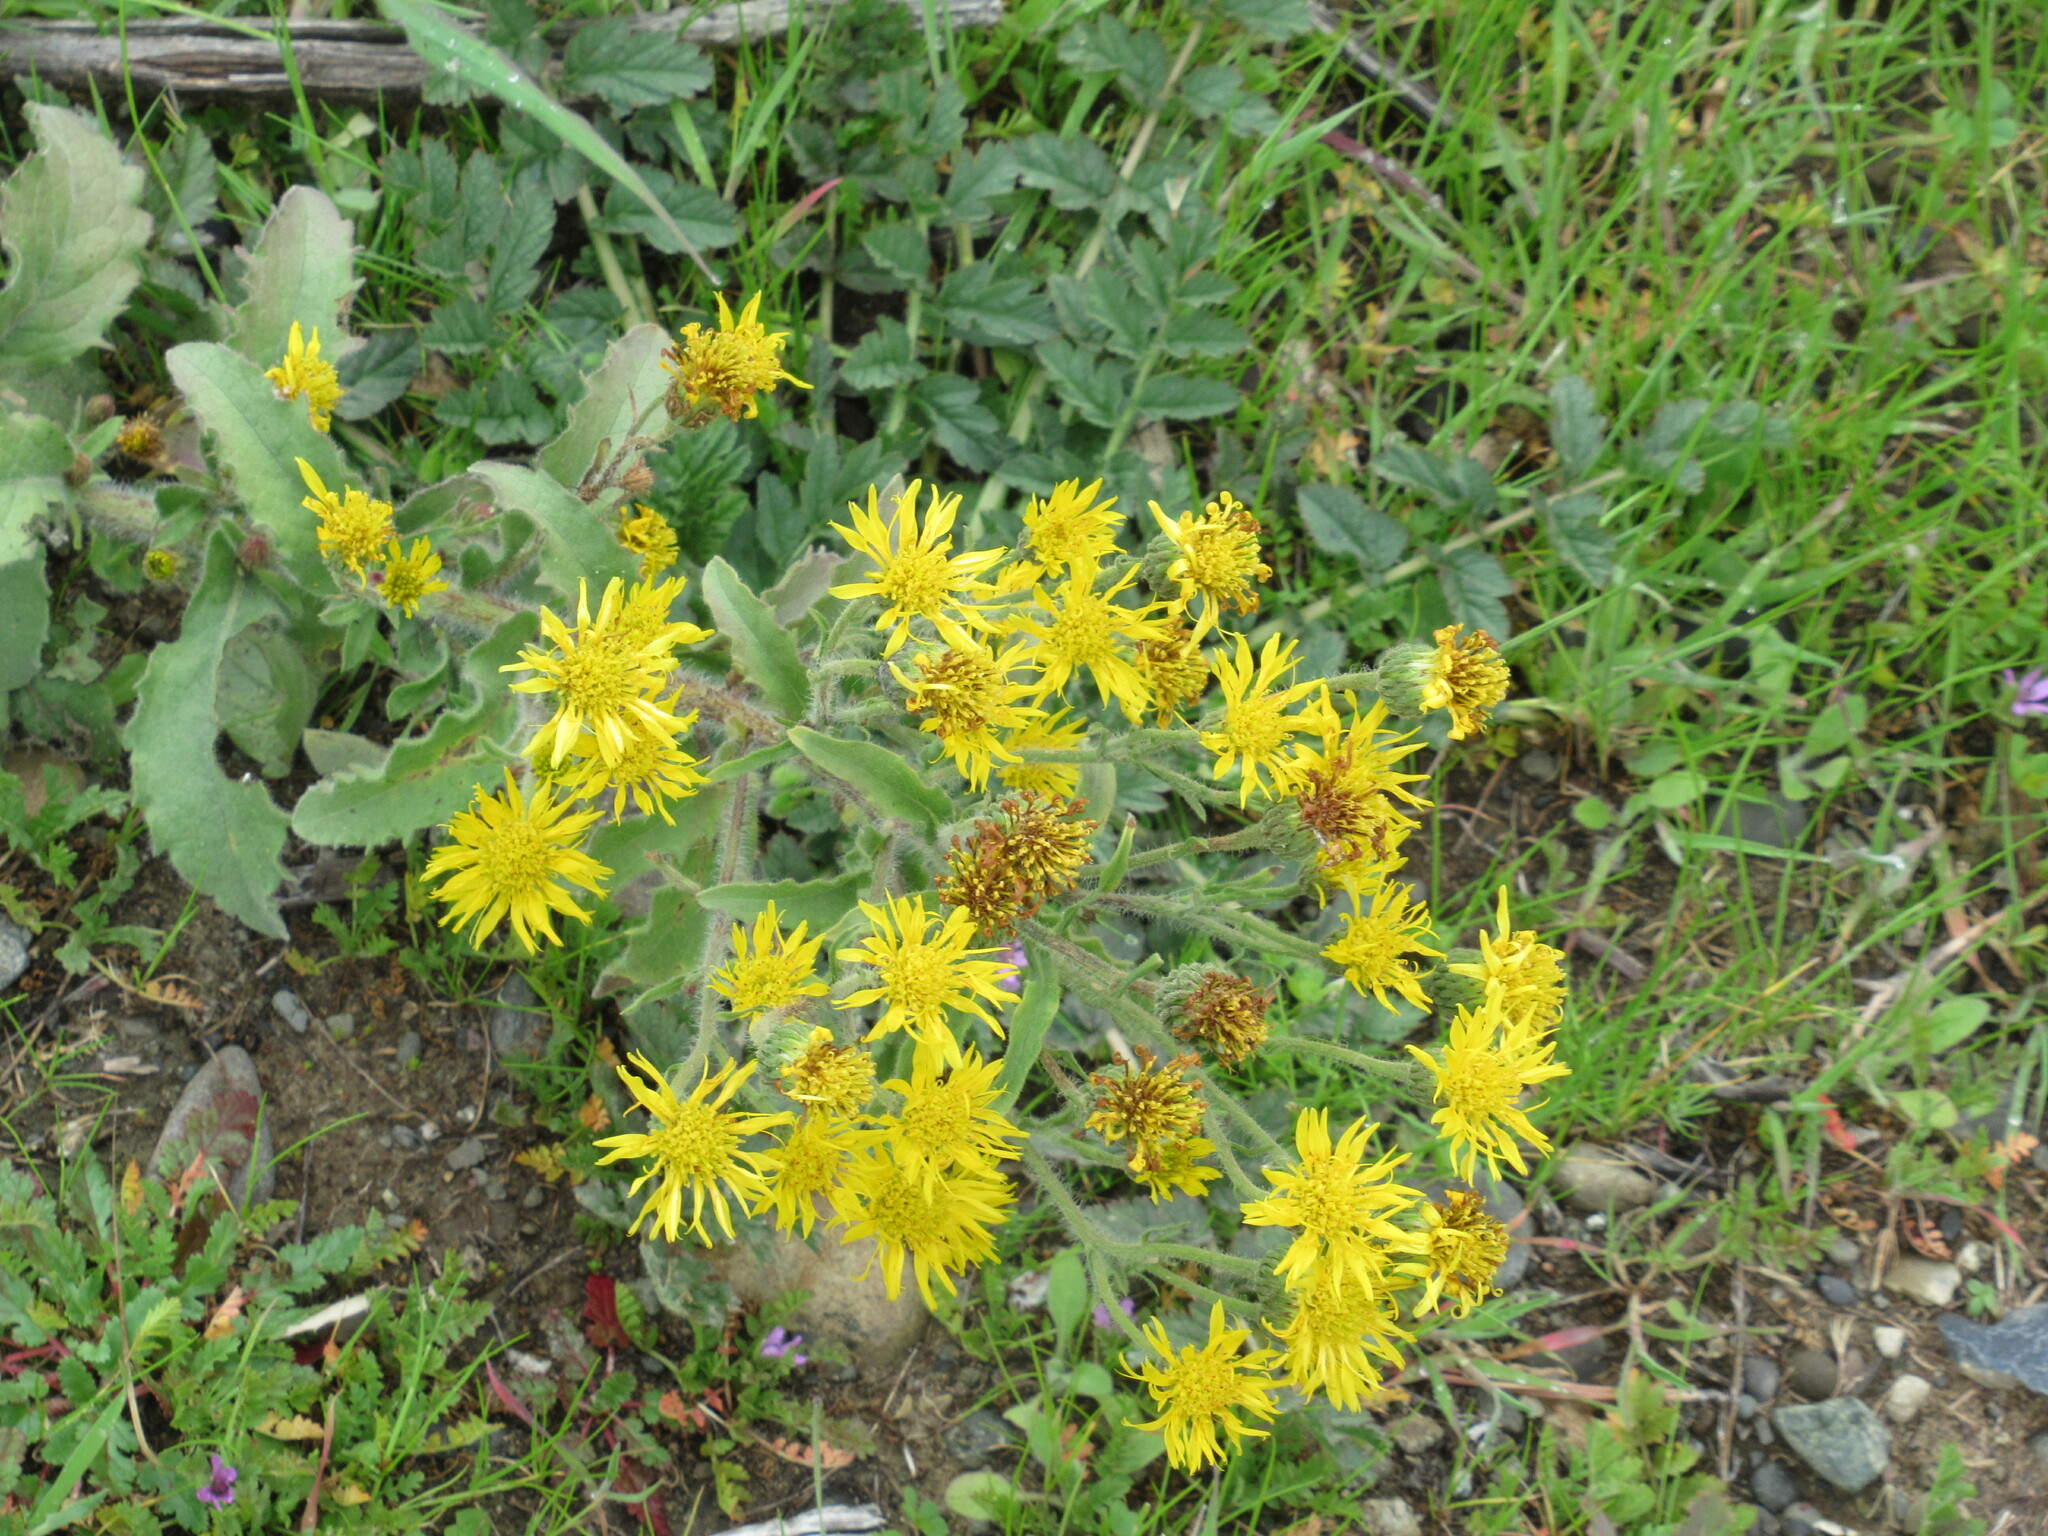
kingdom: Plantae
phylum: Tracheophyta
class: Magnoliopsida
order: Asterales
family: Asteraceae
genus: Heterotheca
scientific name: Heterotheca grandiflora
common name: Telegraphweed
